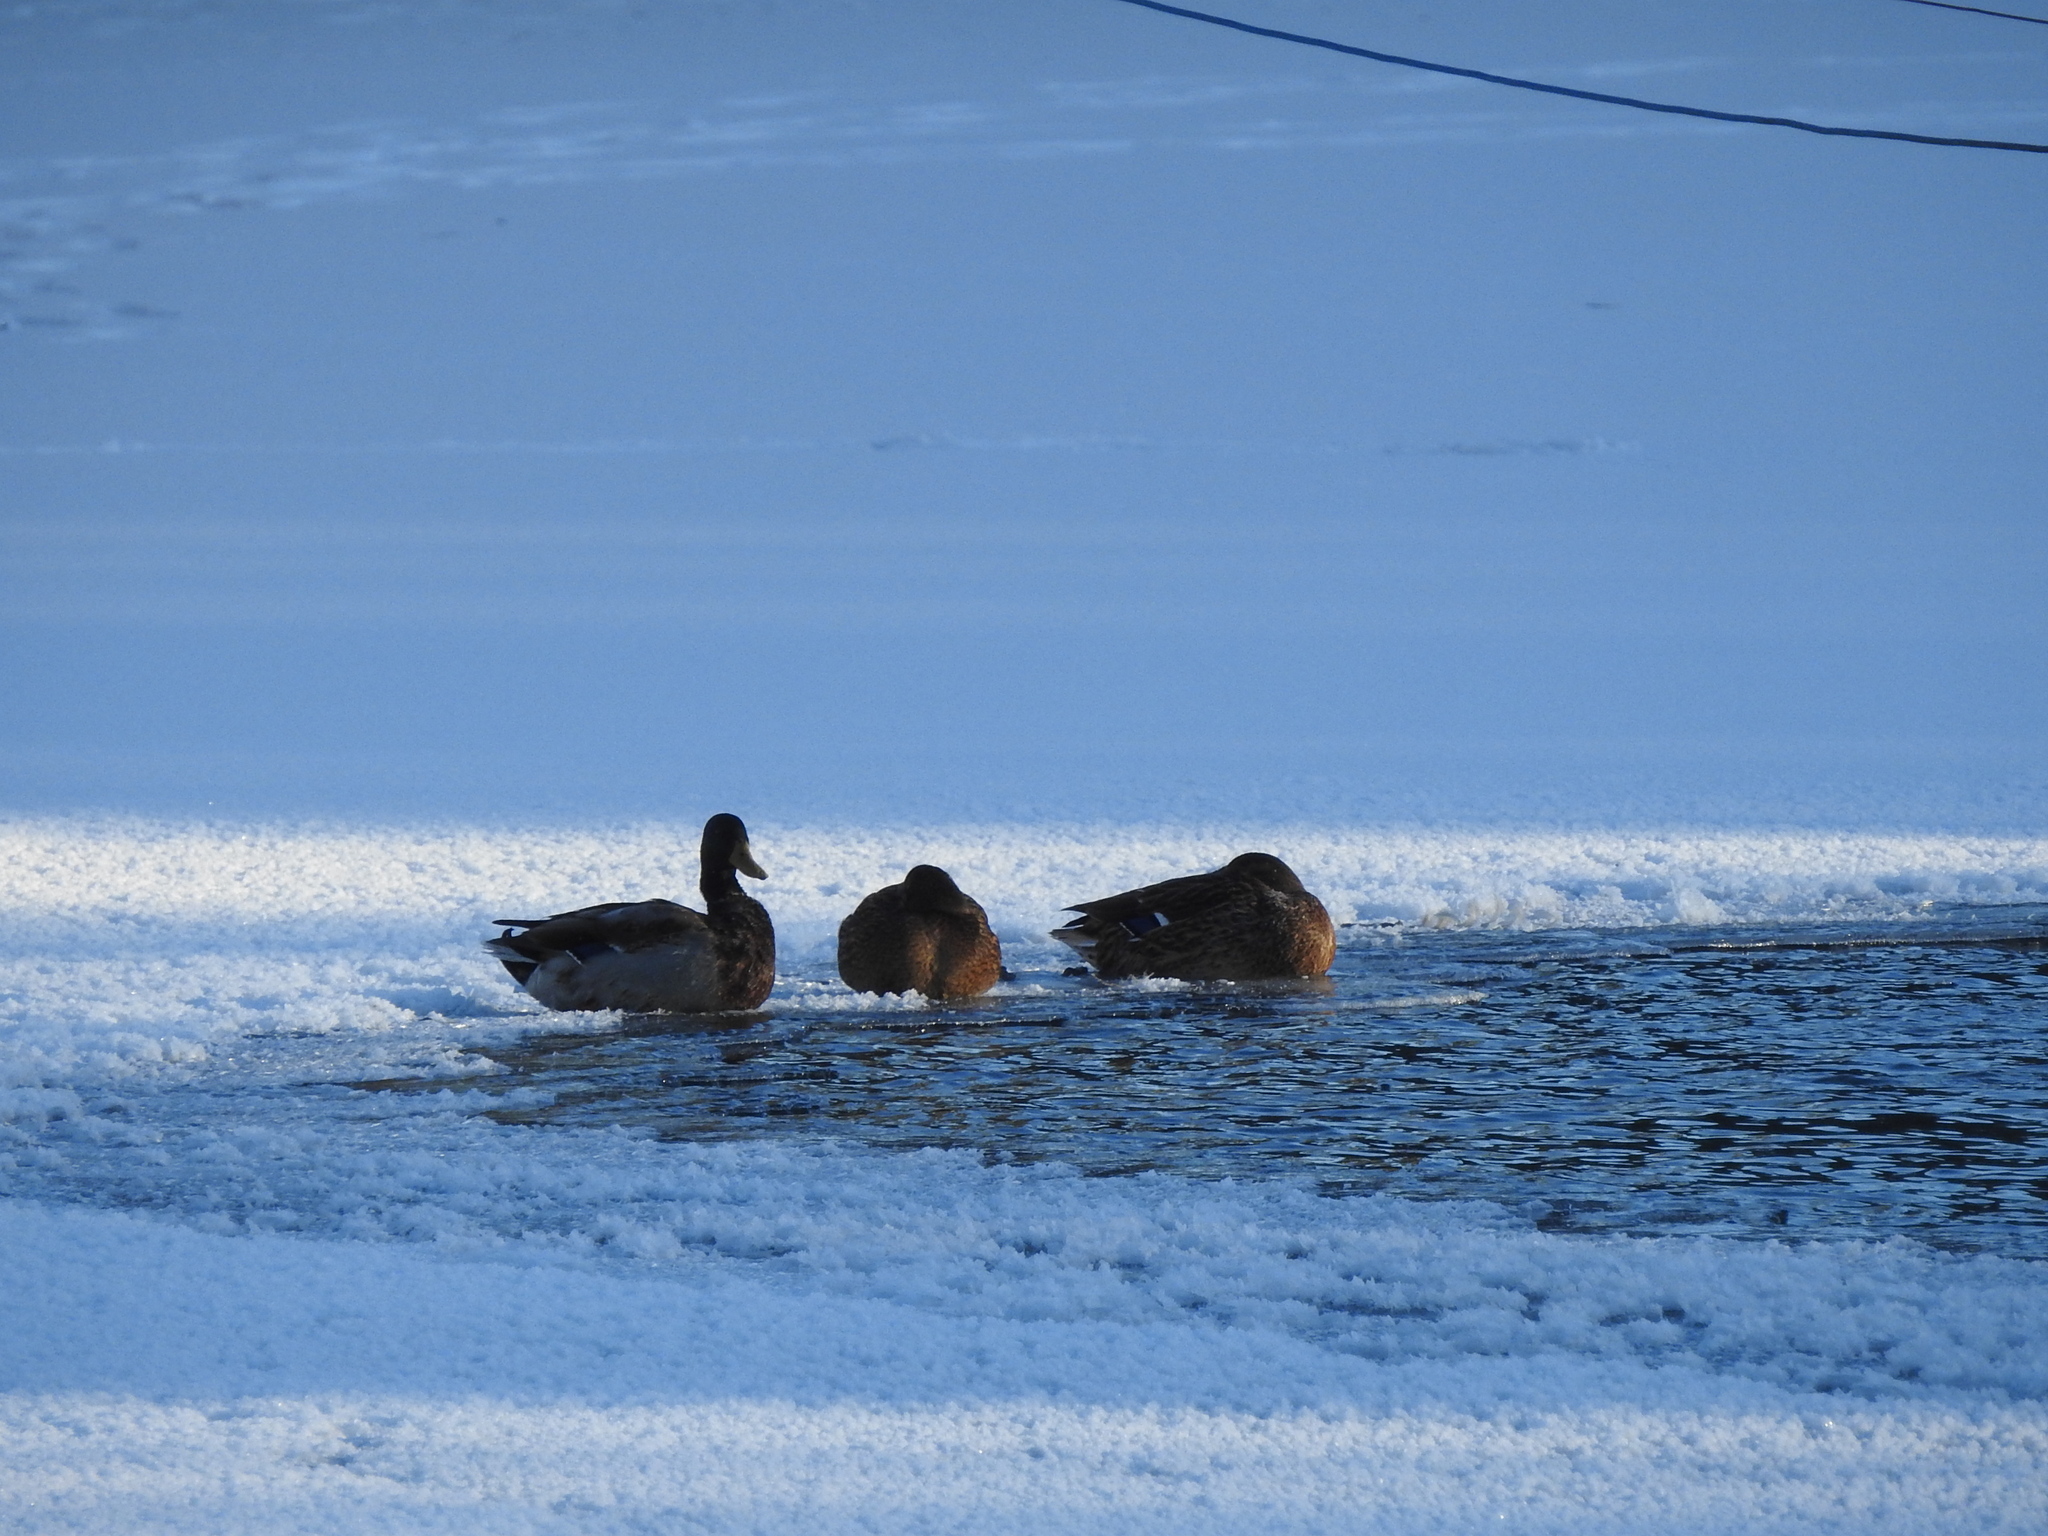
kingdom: Animalia
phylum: Chordata
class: Aves
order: Anseriformes
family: Anatidae
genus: Anas
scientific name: Anas platyrhynchos
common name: Mallard
